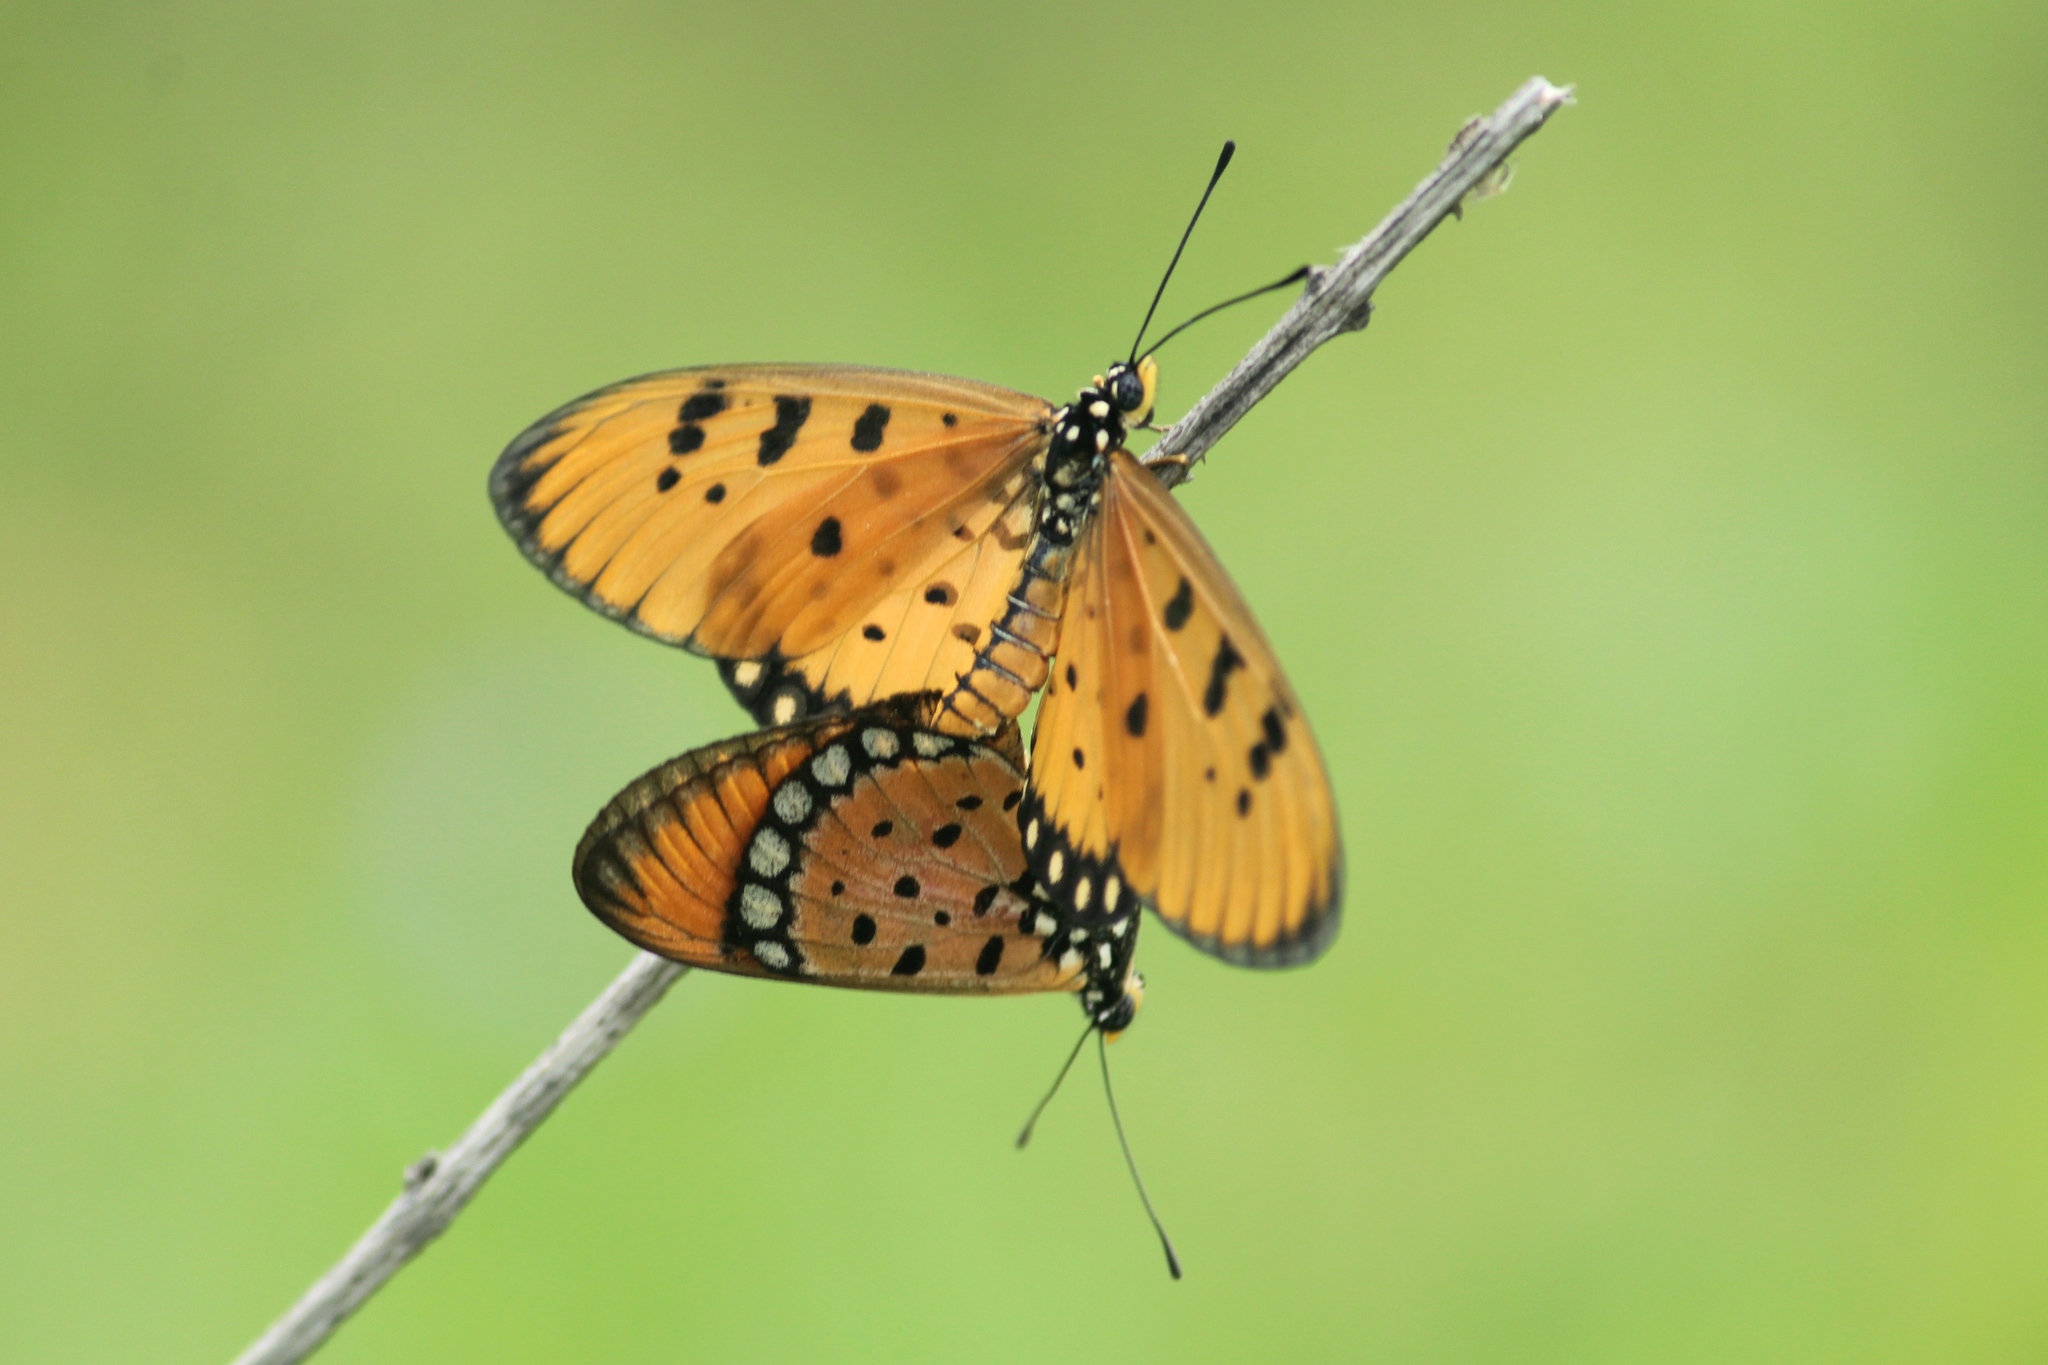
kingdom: Animalia
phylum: Arthropoda
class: Insecta
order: Lepidoptera
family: Nymphalidae
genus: Acraea
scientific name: Acraea terpsicore
